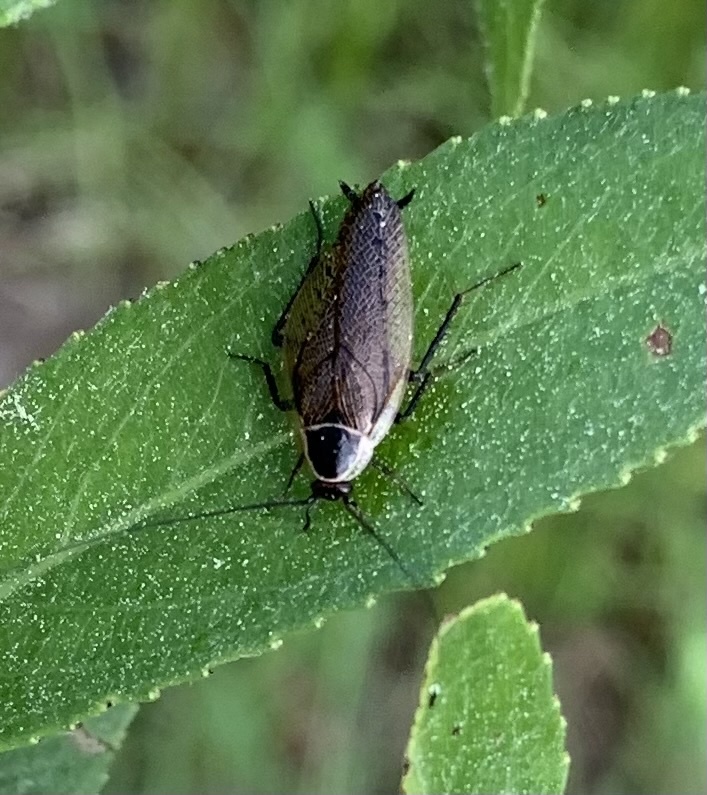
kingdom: Animalia
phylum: Arthropoda
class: Insecta
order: Blattodea
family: Ectobiidae
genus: Ectobius
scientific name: Ectobius sylvestris
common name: Forest cockroach
